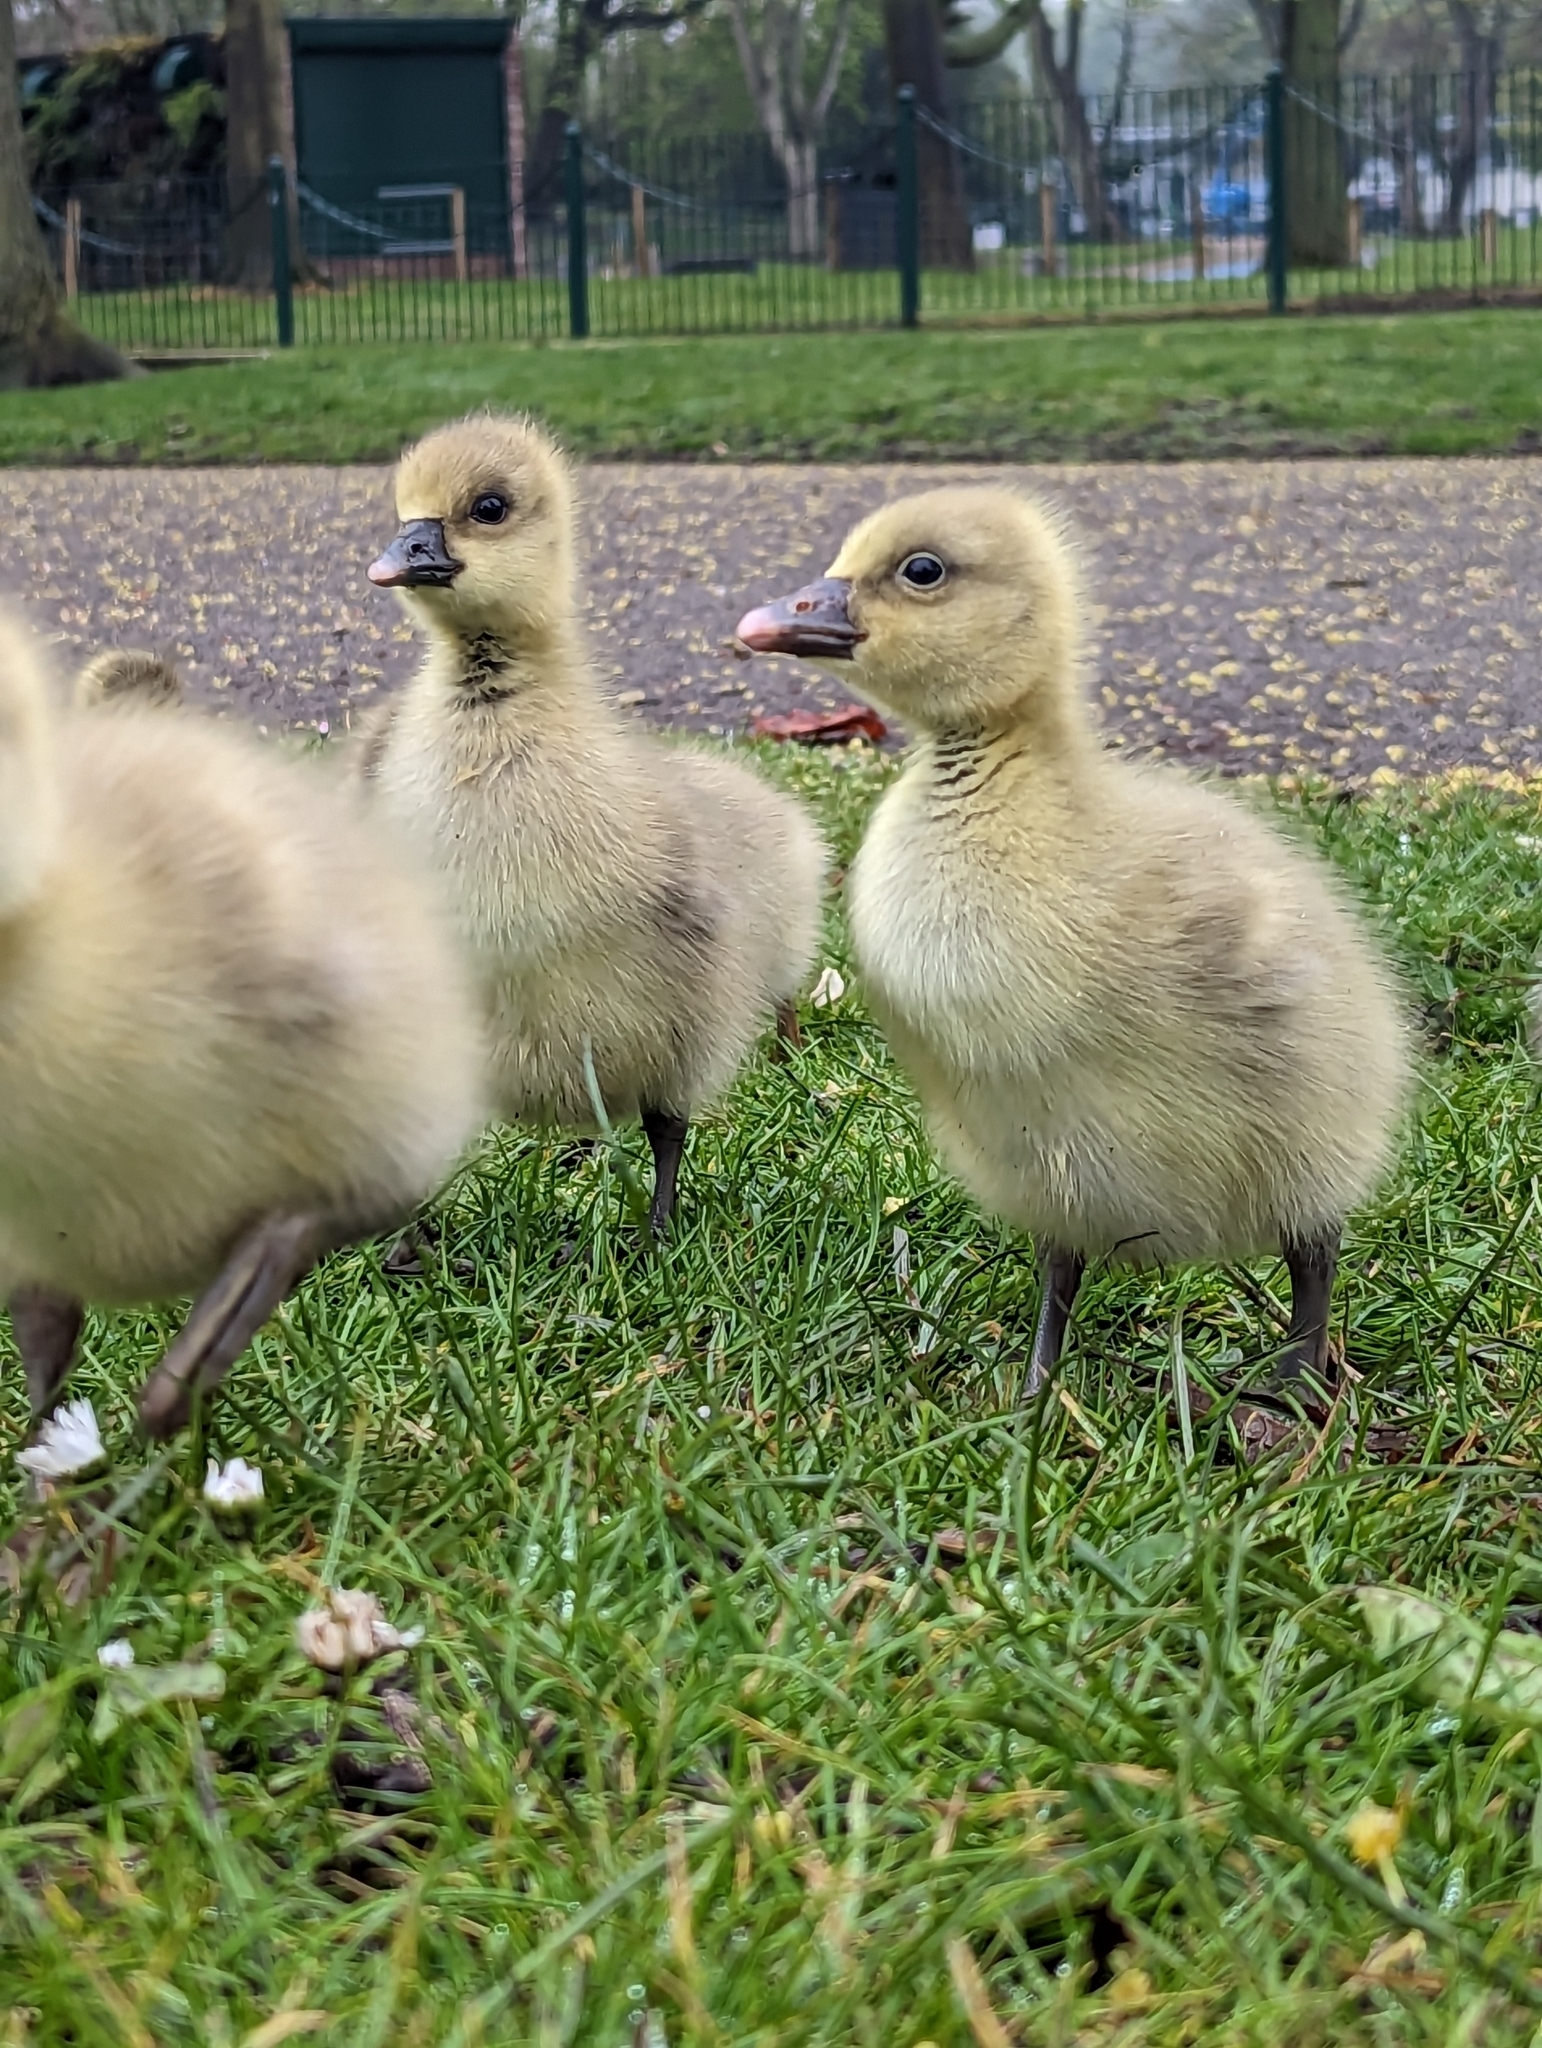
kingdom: Animalia
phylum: Chordata
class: Aves
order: Anseriformes
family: Anatidae
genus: Anser
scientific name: Anser anser
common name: Greylag goose
